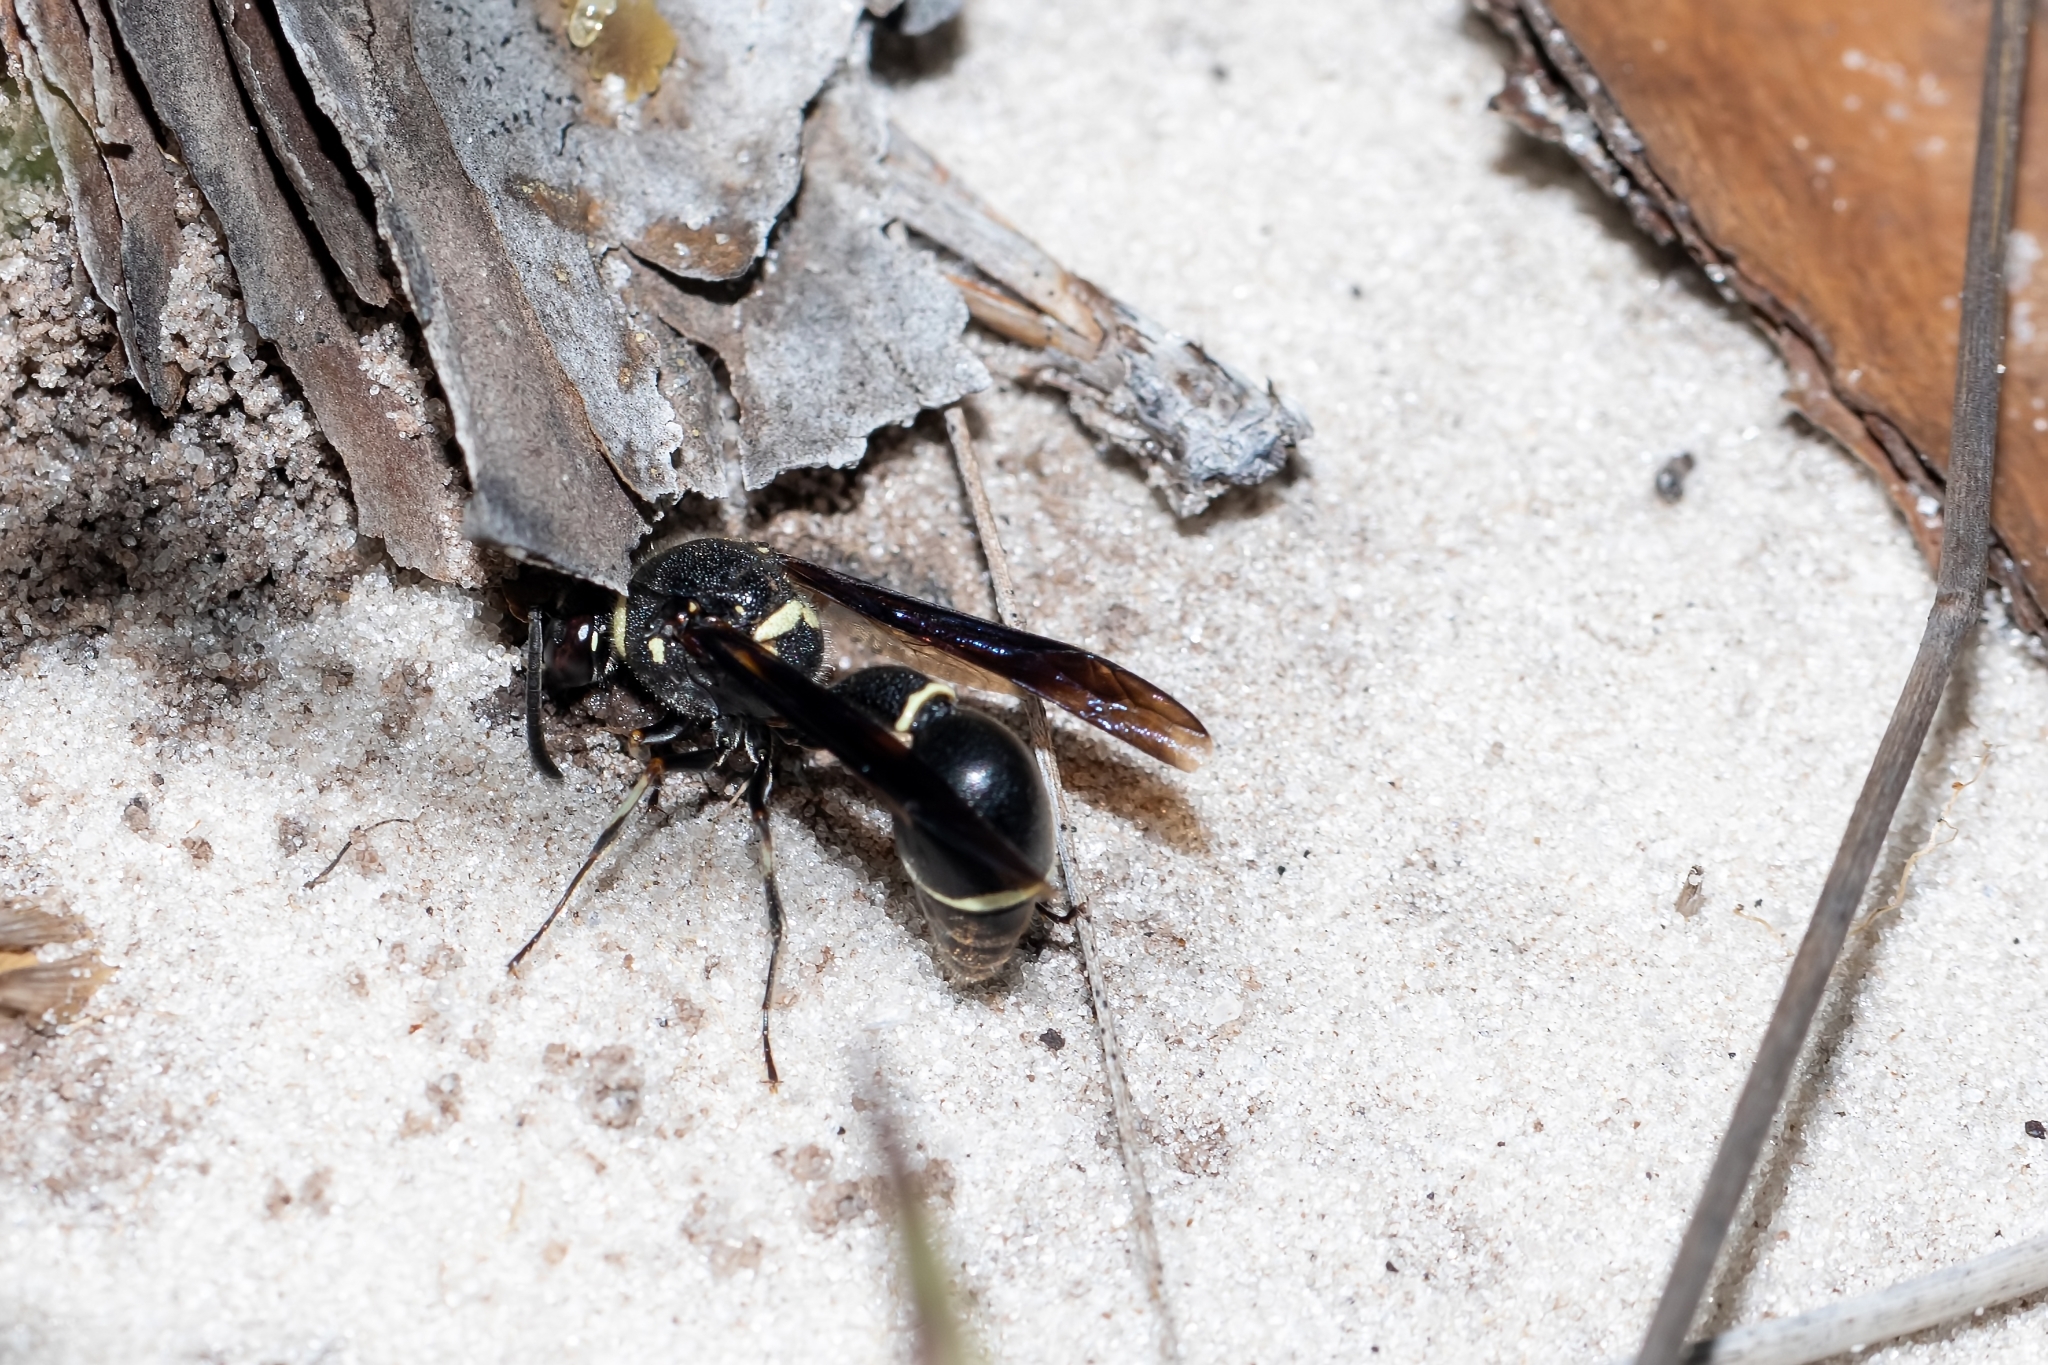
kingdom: Animalia
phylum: Arthropoda
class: Insecta
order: Hymenoptera
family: Vespidae
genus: Eumenes
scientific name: Eumenes fraternus
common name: Fraternal potter wasp
